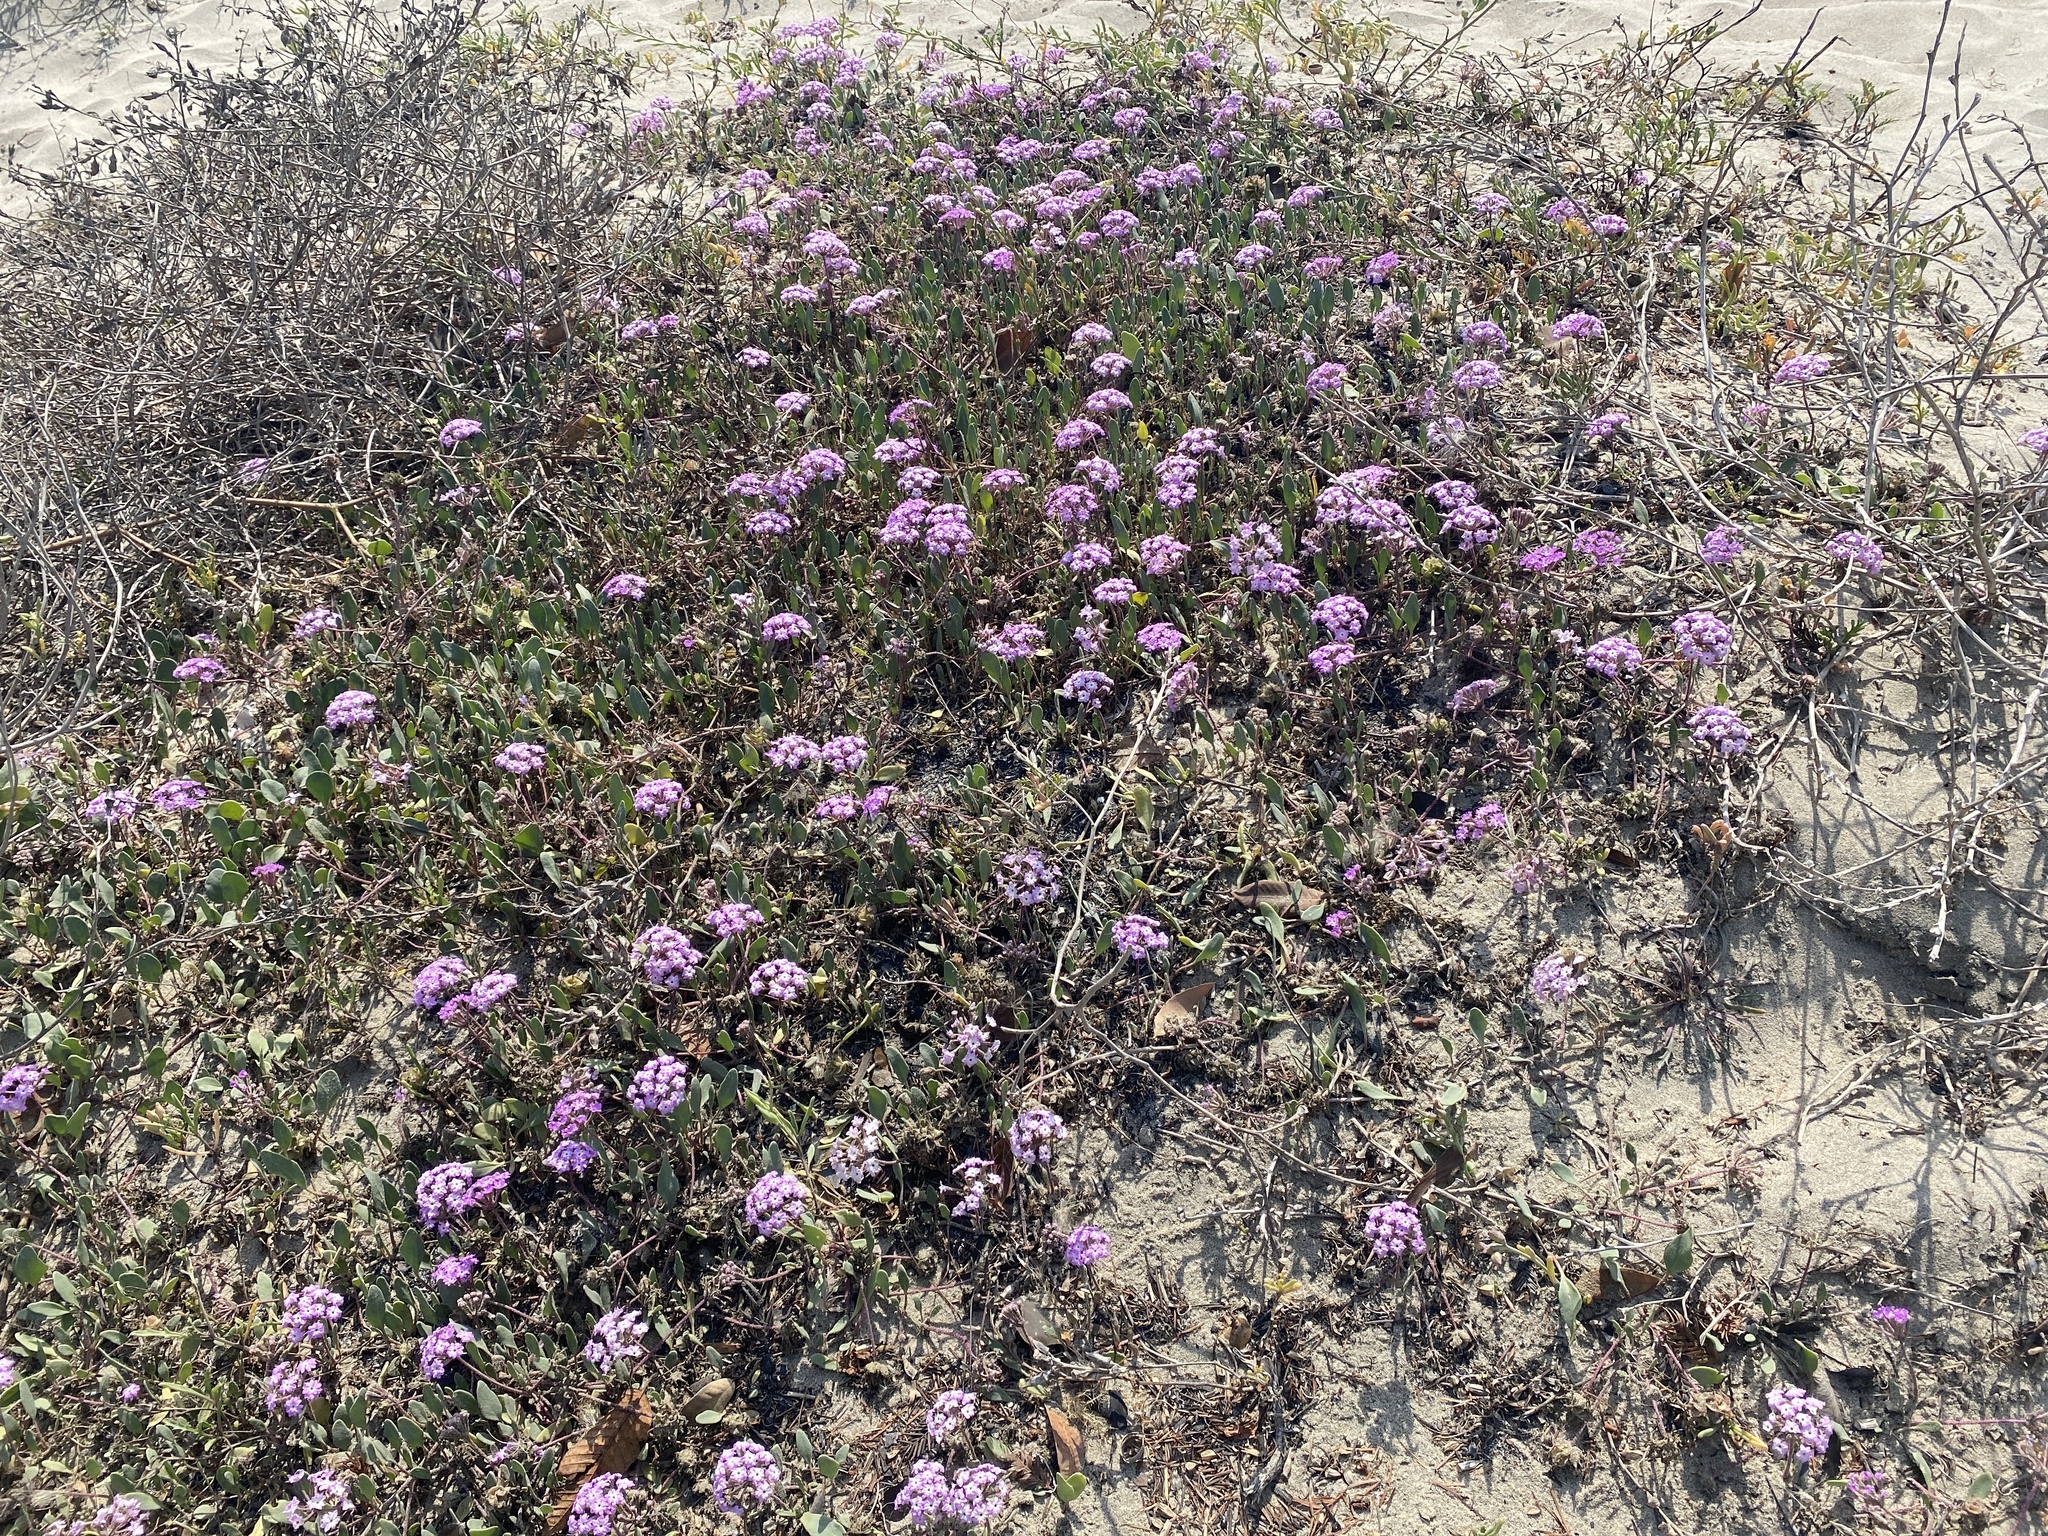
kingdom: Plantae
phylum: Tracheophyta
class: Magnoliopsida
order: Caryophyllales
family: Nyctaginaceae
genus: Abronia
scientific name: Abronia umbellata
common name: Sand-verbena
